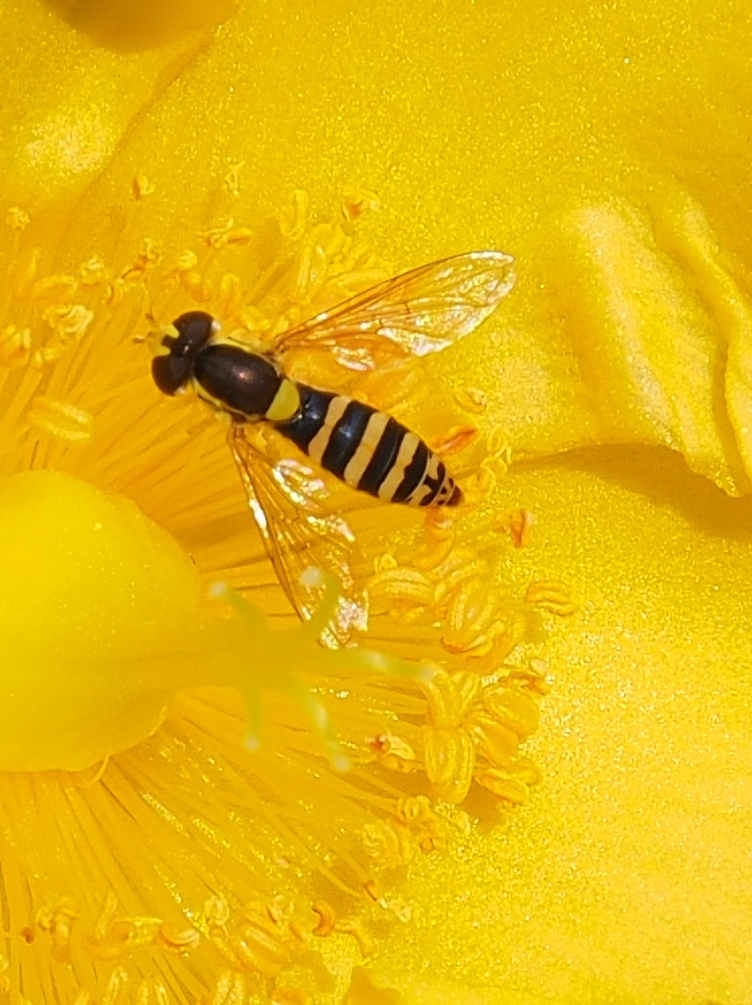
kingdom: Animalia
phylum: Arthropoda
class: Insecta
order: Diptera
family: Syrphidae
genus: Sphaerophoria
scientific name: Sphaerophoria
